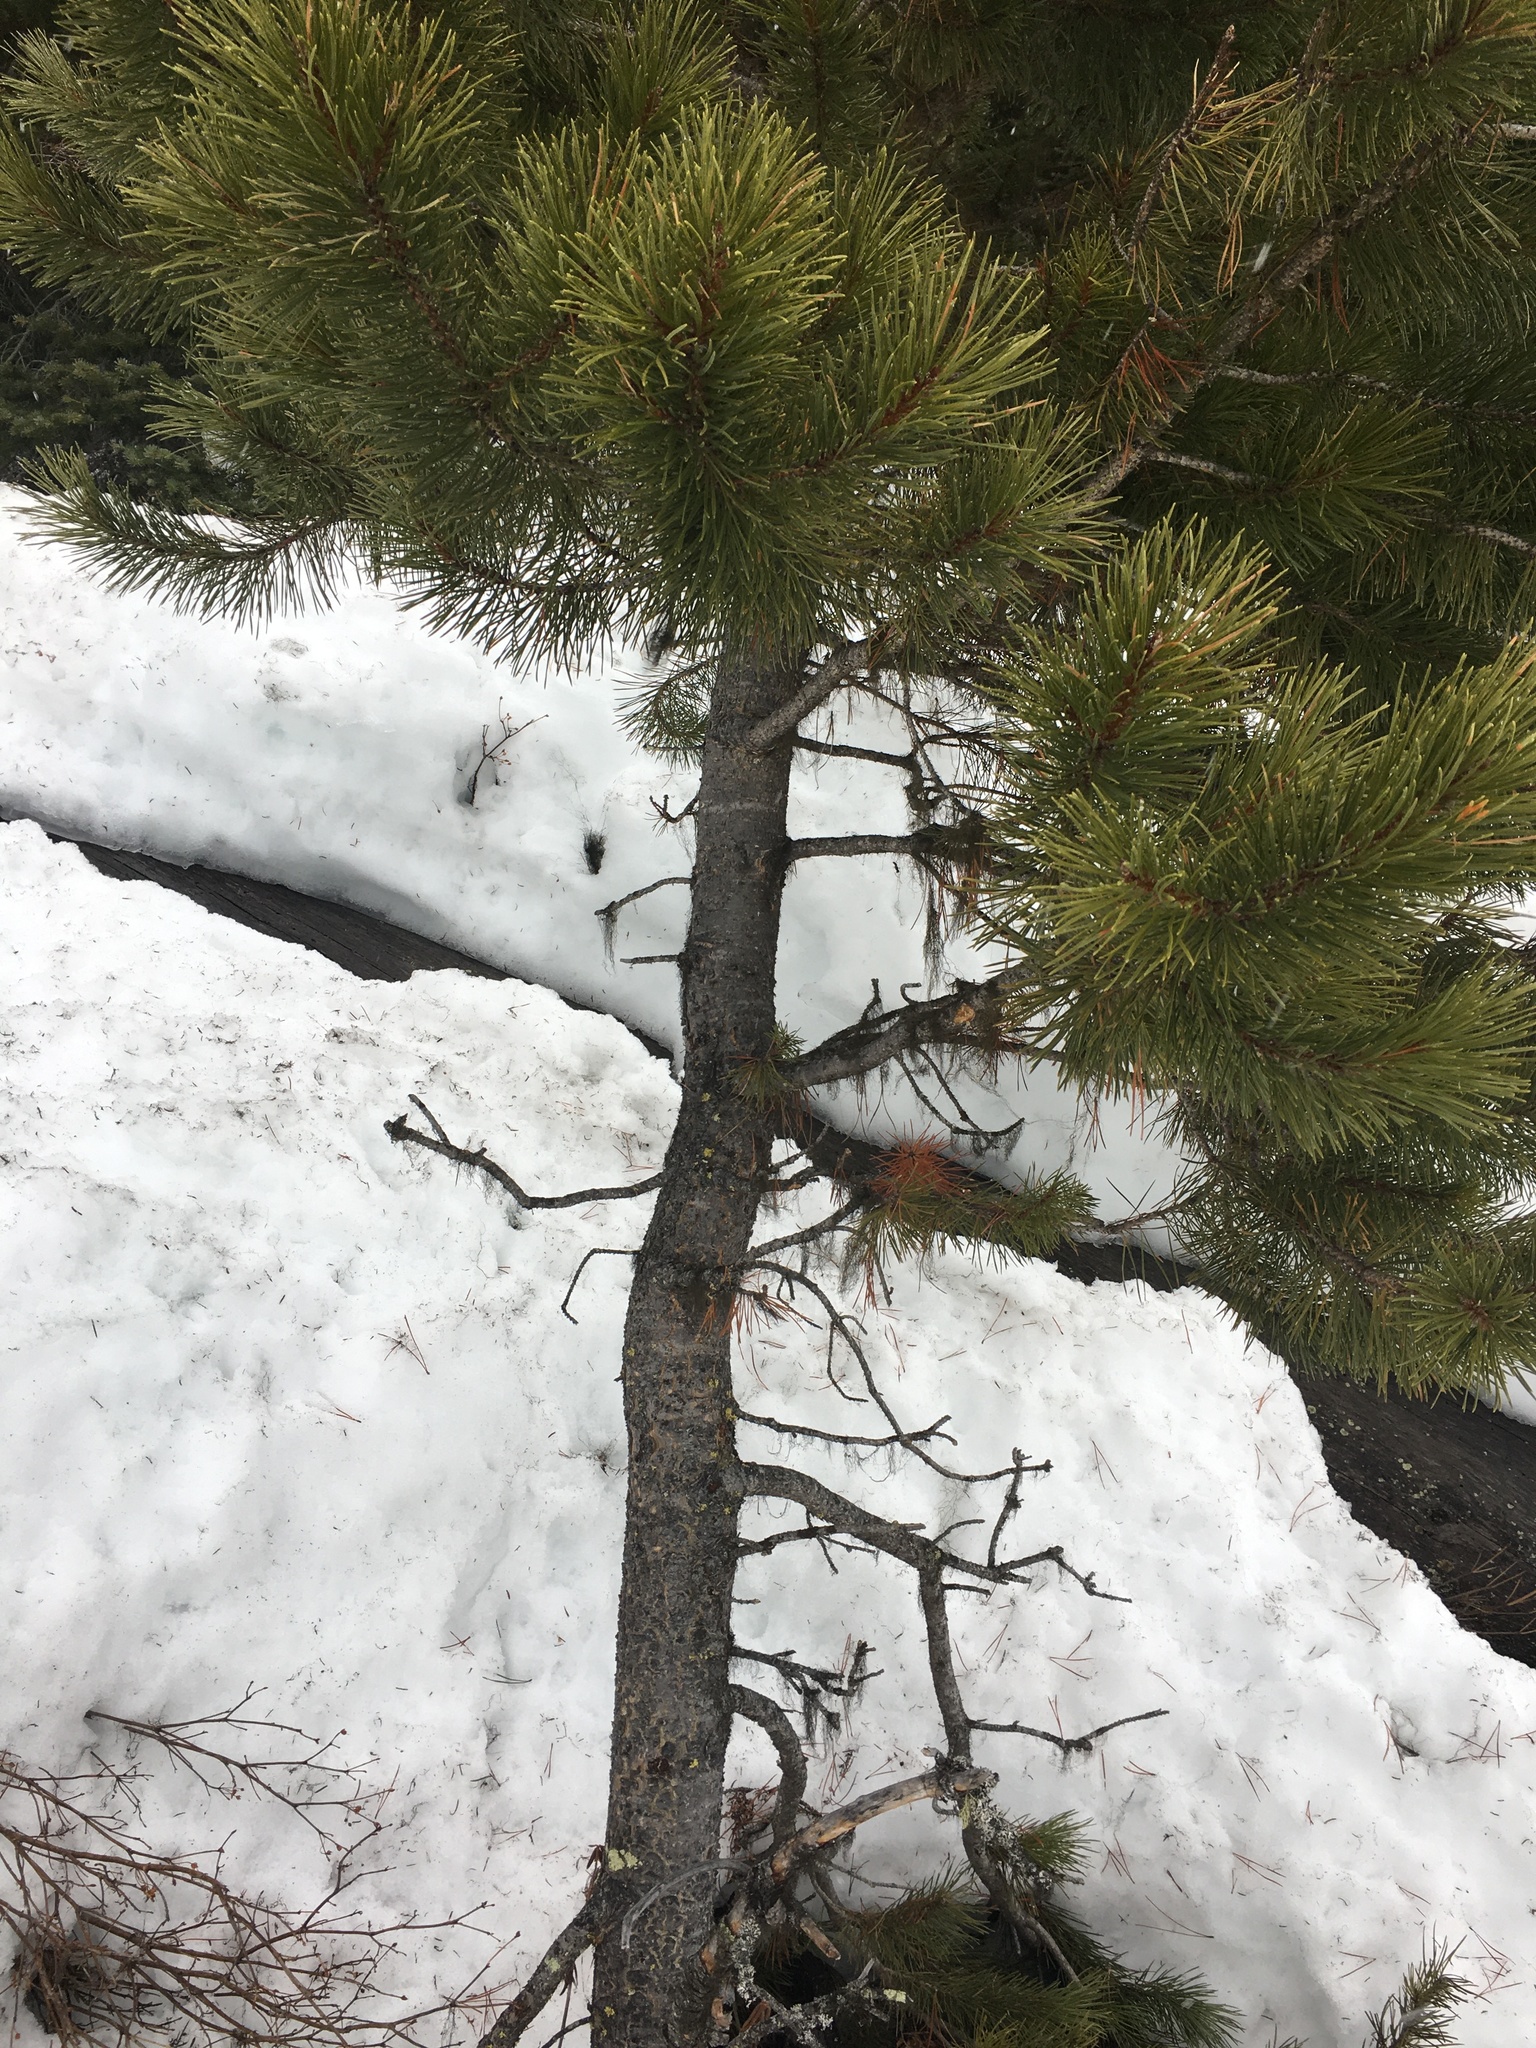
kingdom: Plantae
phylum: Tracheophyta
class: Pinopsida
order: Pinales
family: Pinaceae
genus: Pinus
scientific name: Pinus contorta
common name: Lodgepole pine
